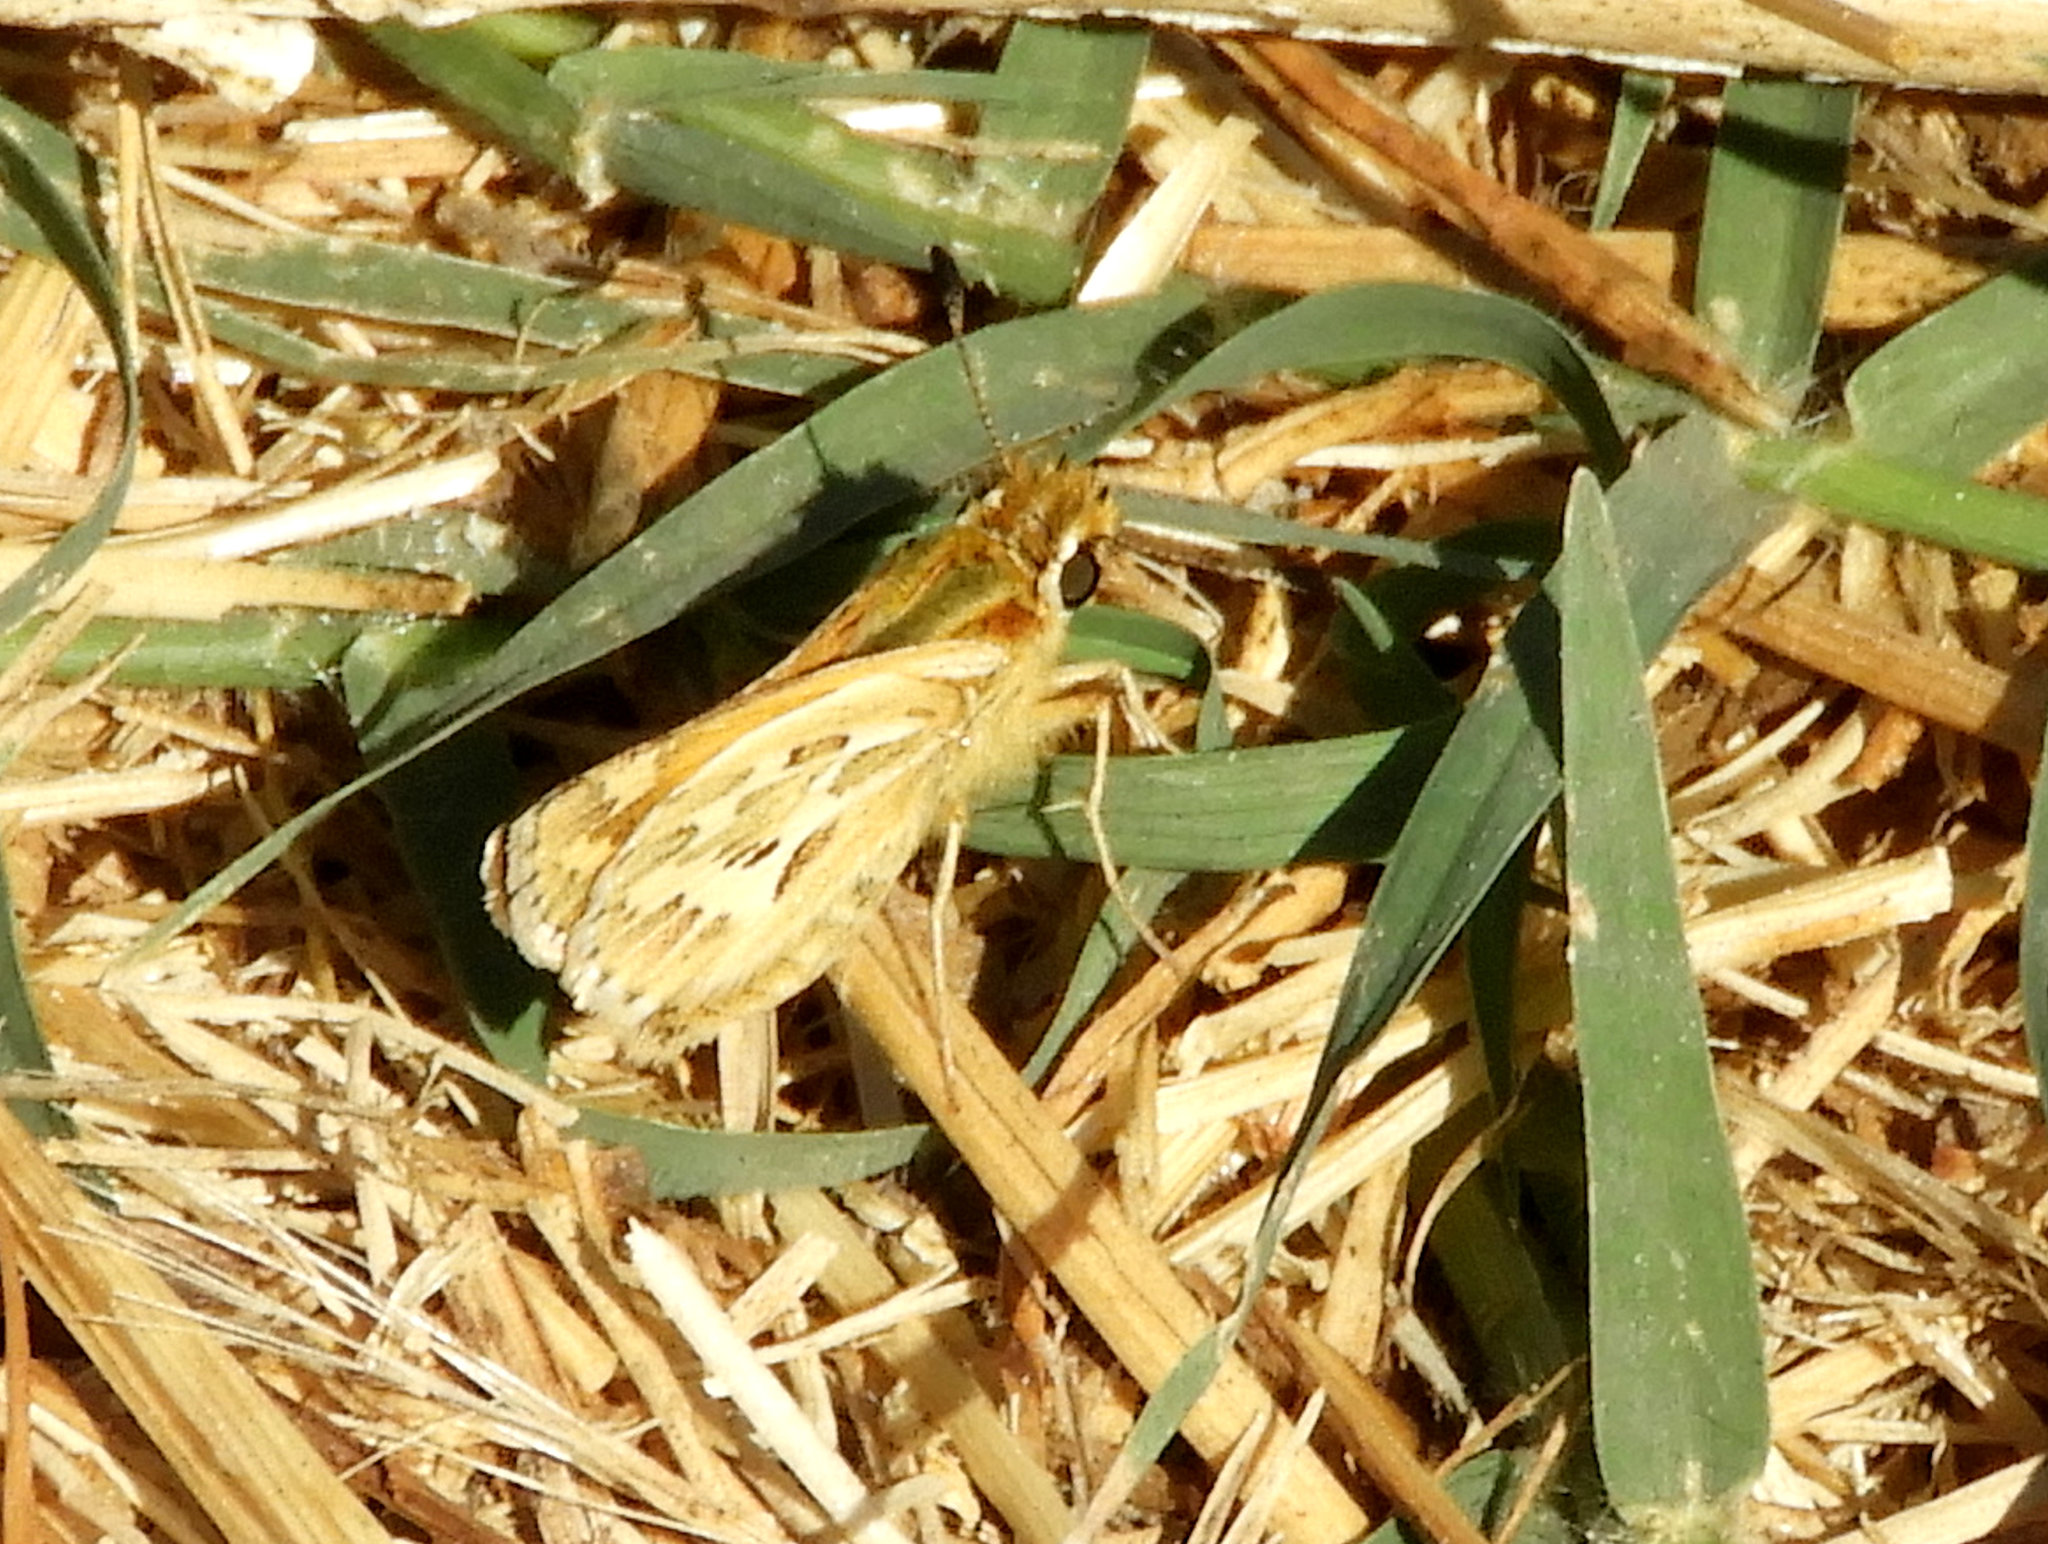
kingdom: Animalia
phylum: Arthropoda
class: Insecta
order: Lepidoptera
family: Hesperiidae
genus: Polites
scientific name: Polites sabuleti
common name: Sandhill skipper
